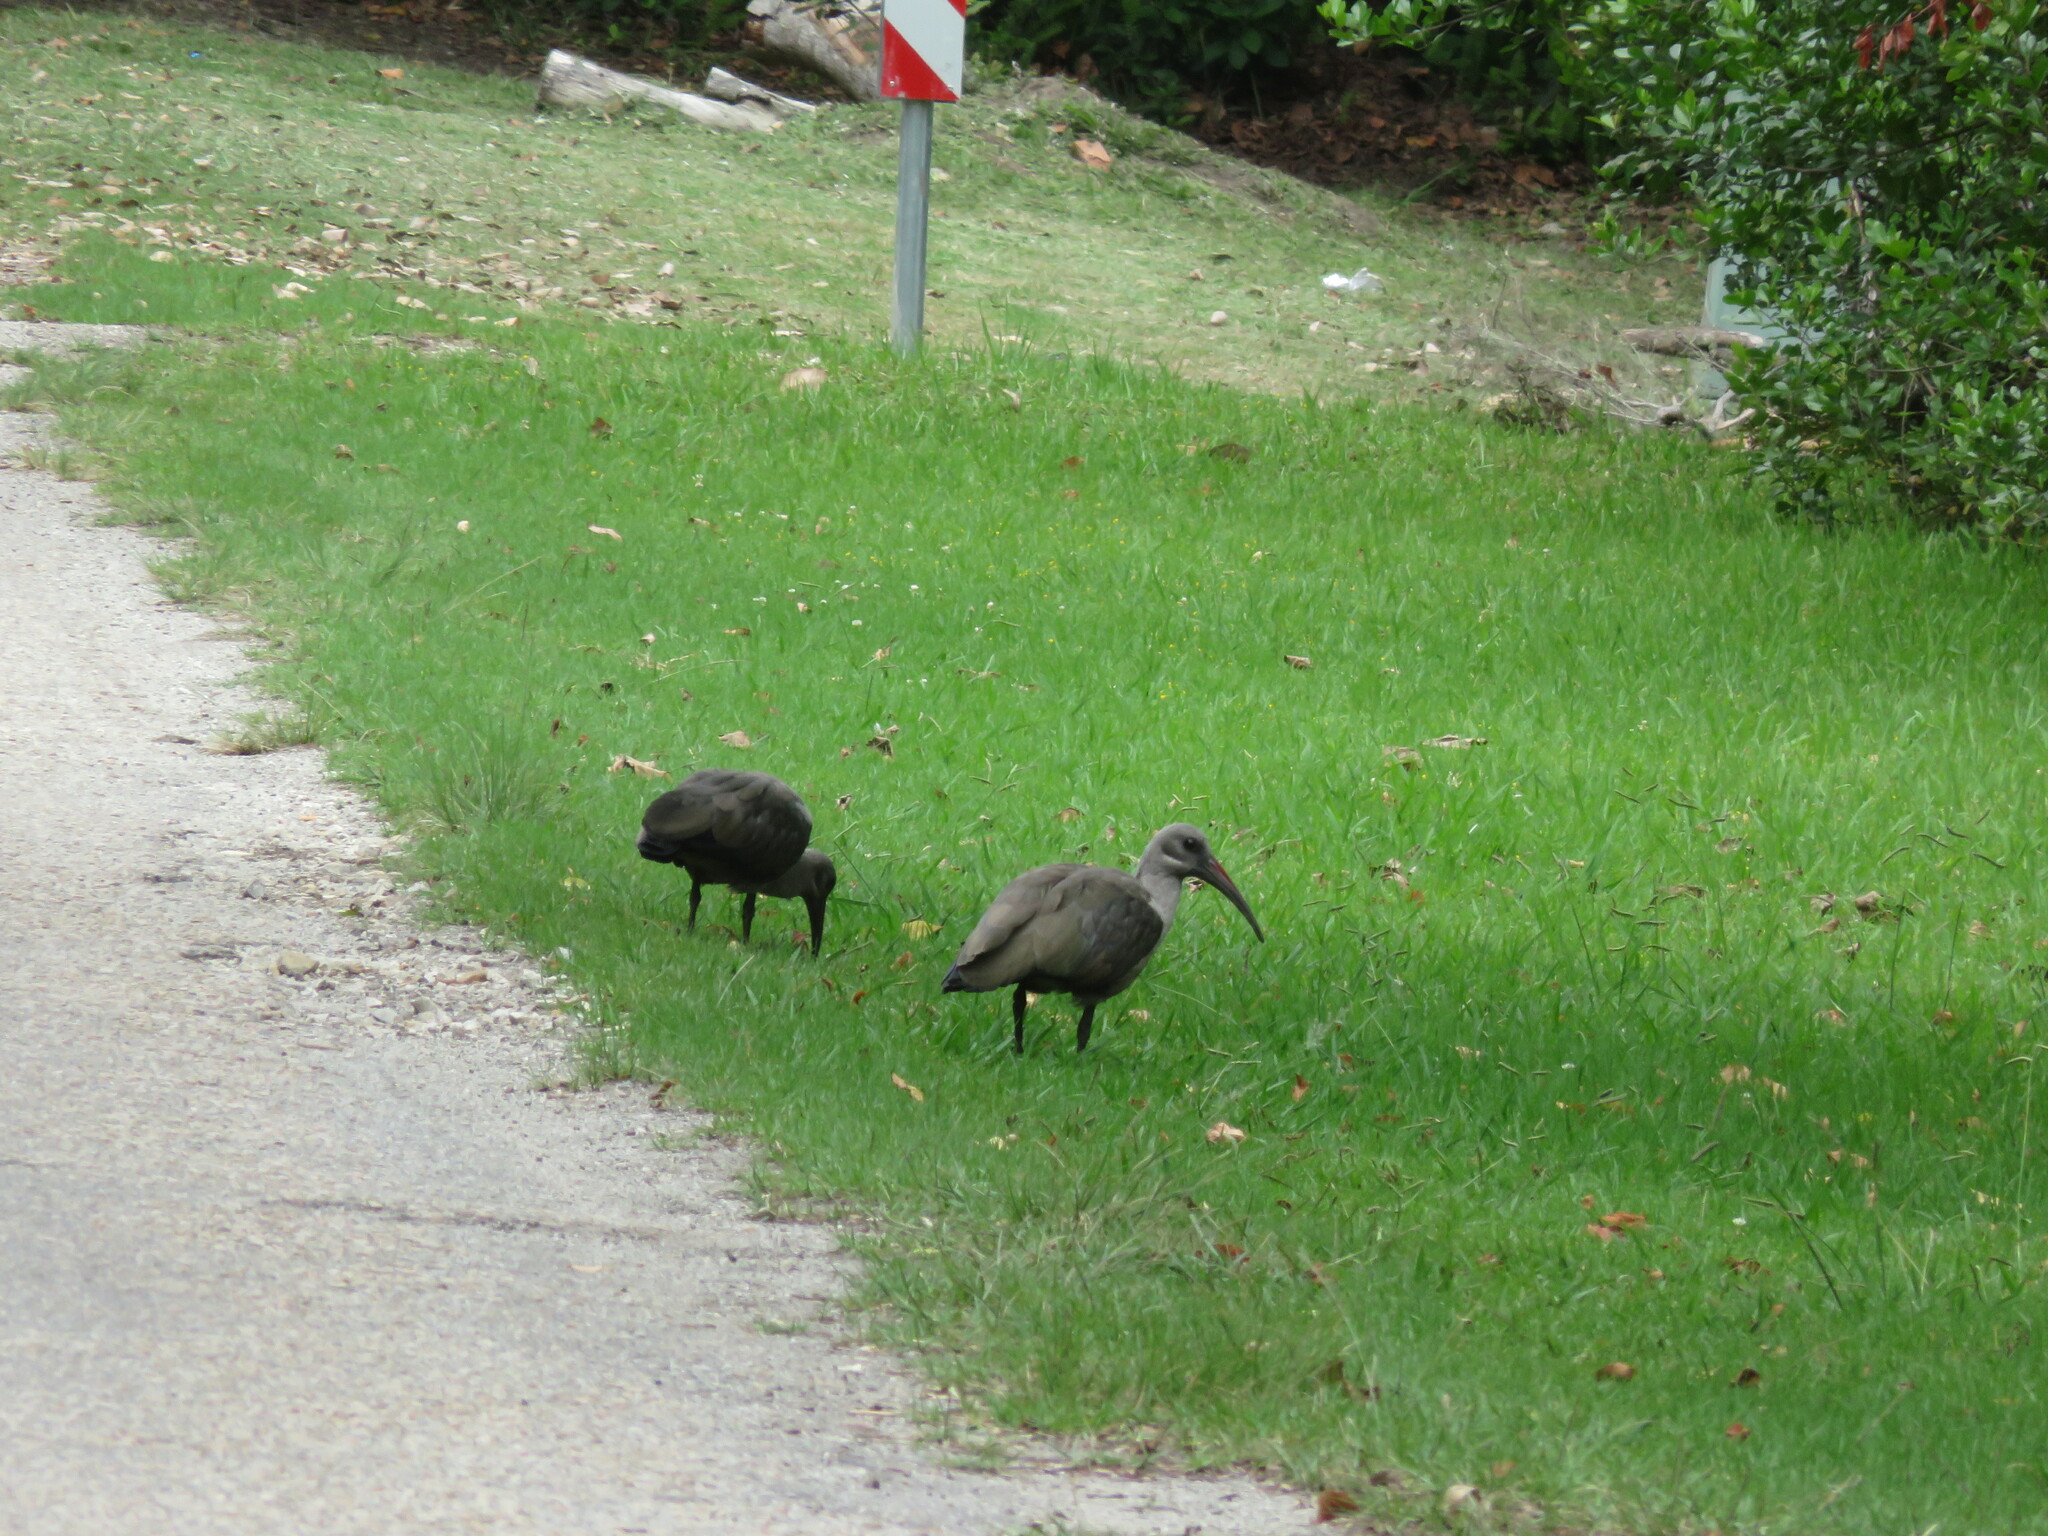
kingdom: Animalia
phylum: Chordata
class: Aves
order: Pelecaniformes
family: Threskiornithidae
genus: Bostrychia
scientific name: Bostrychia hagedash
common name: Hadada ibis
